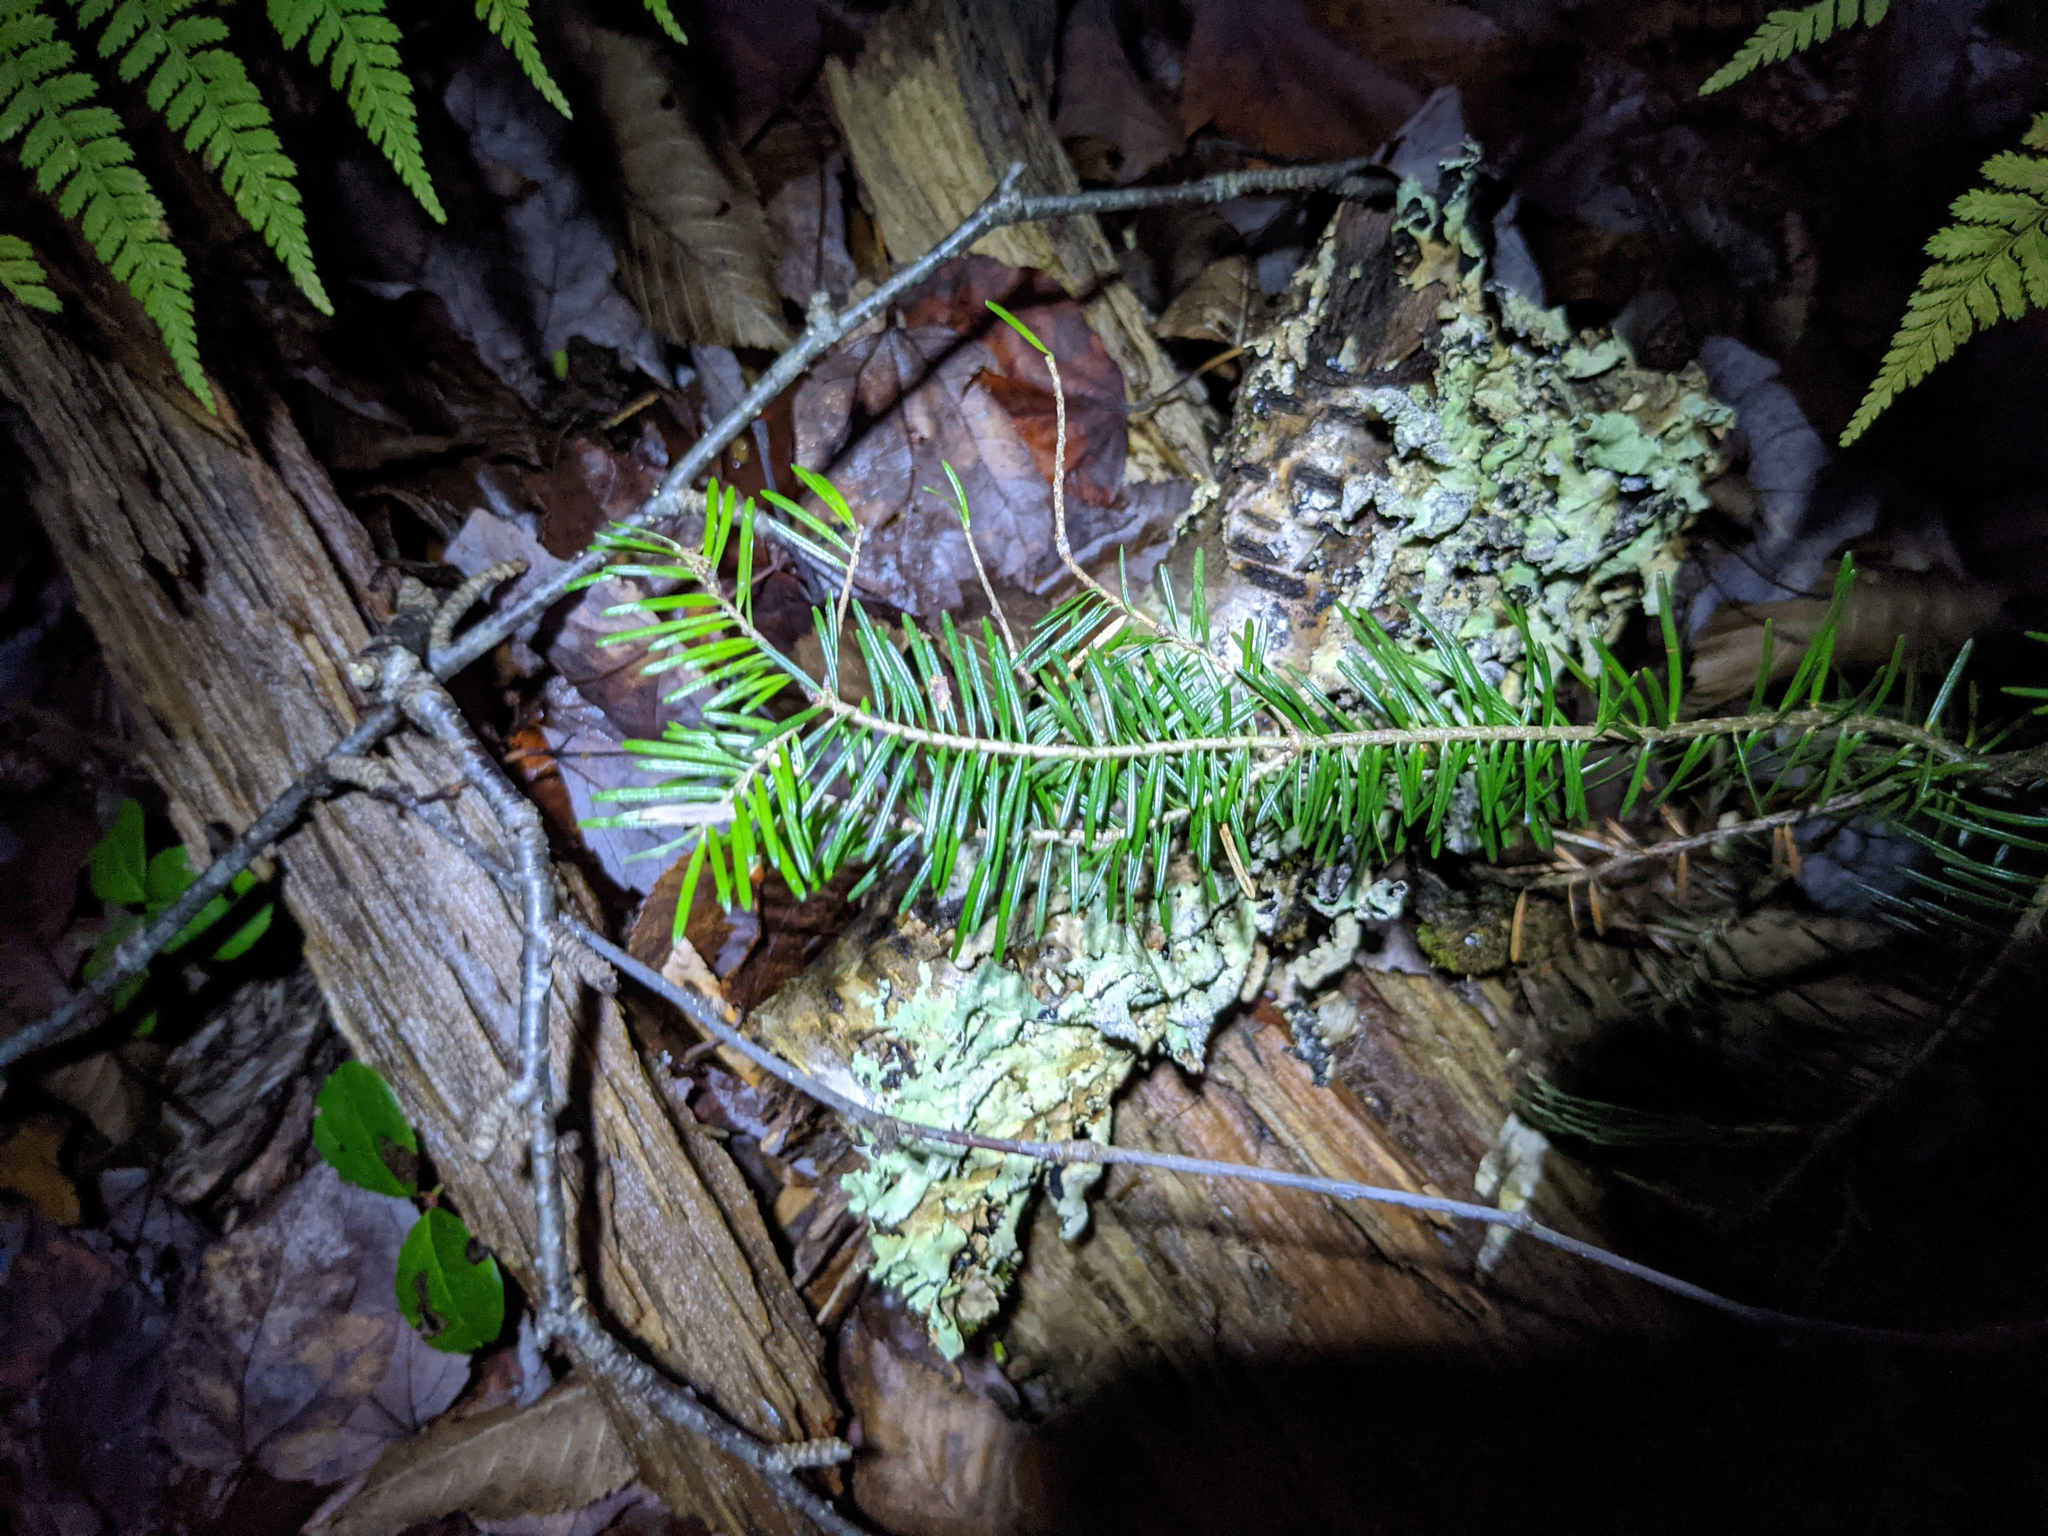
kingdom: Plantae
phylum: Tracheophyta
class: Pinopsida
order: Pinales
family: Pinaceae
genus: Abies
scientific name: Abies balsamea
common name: Balsam fir
